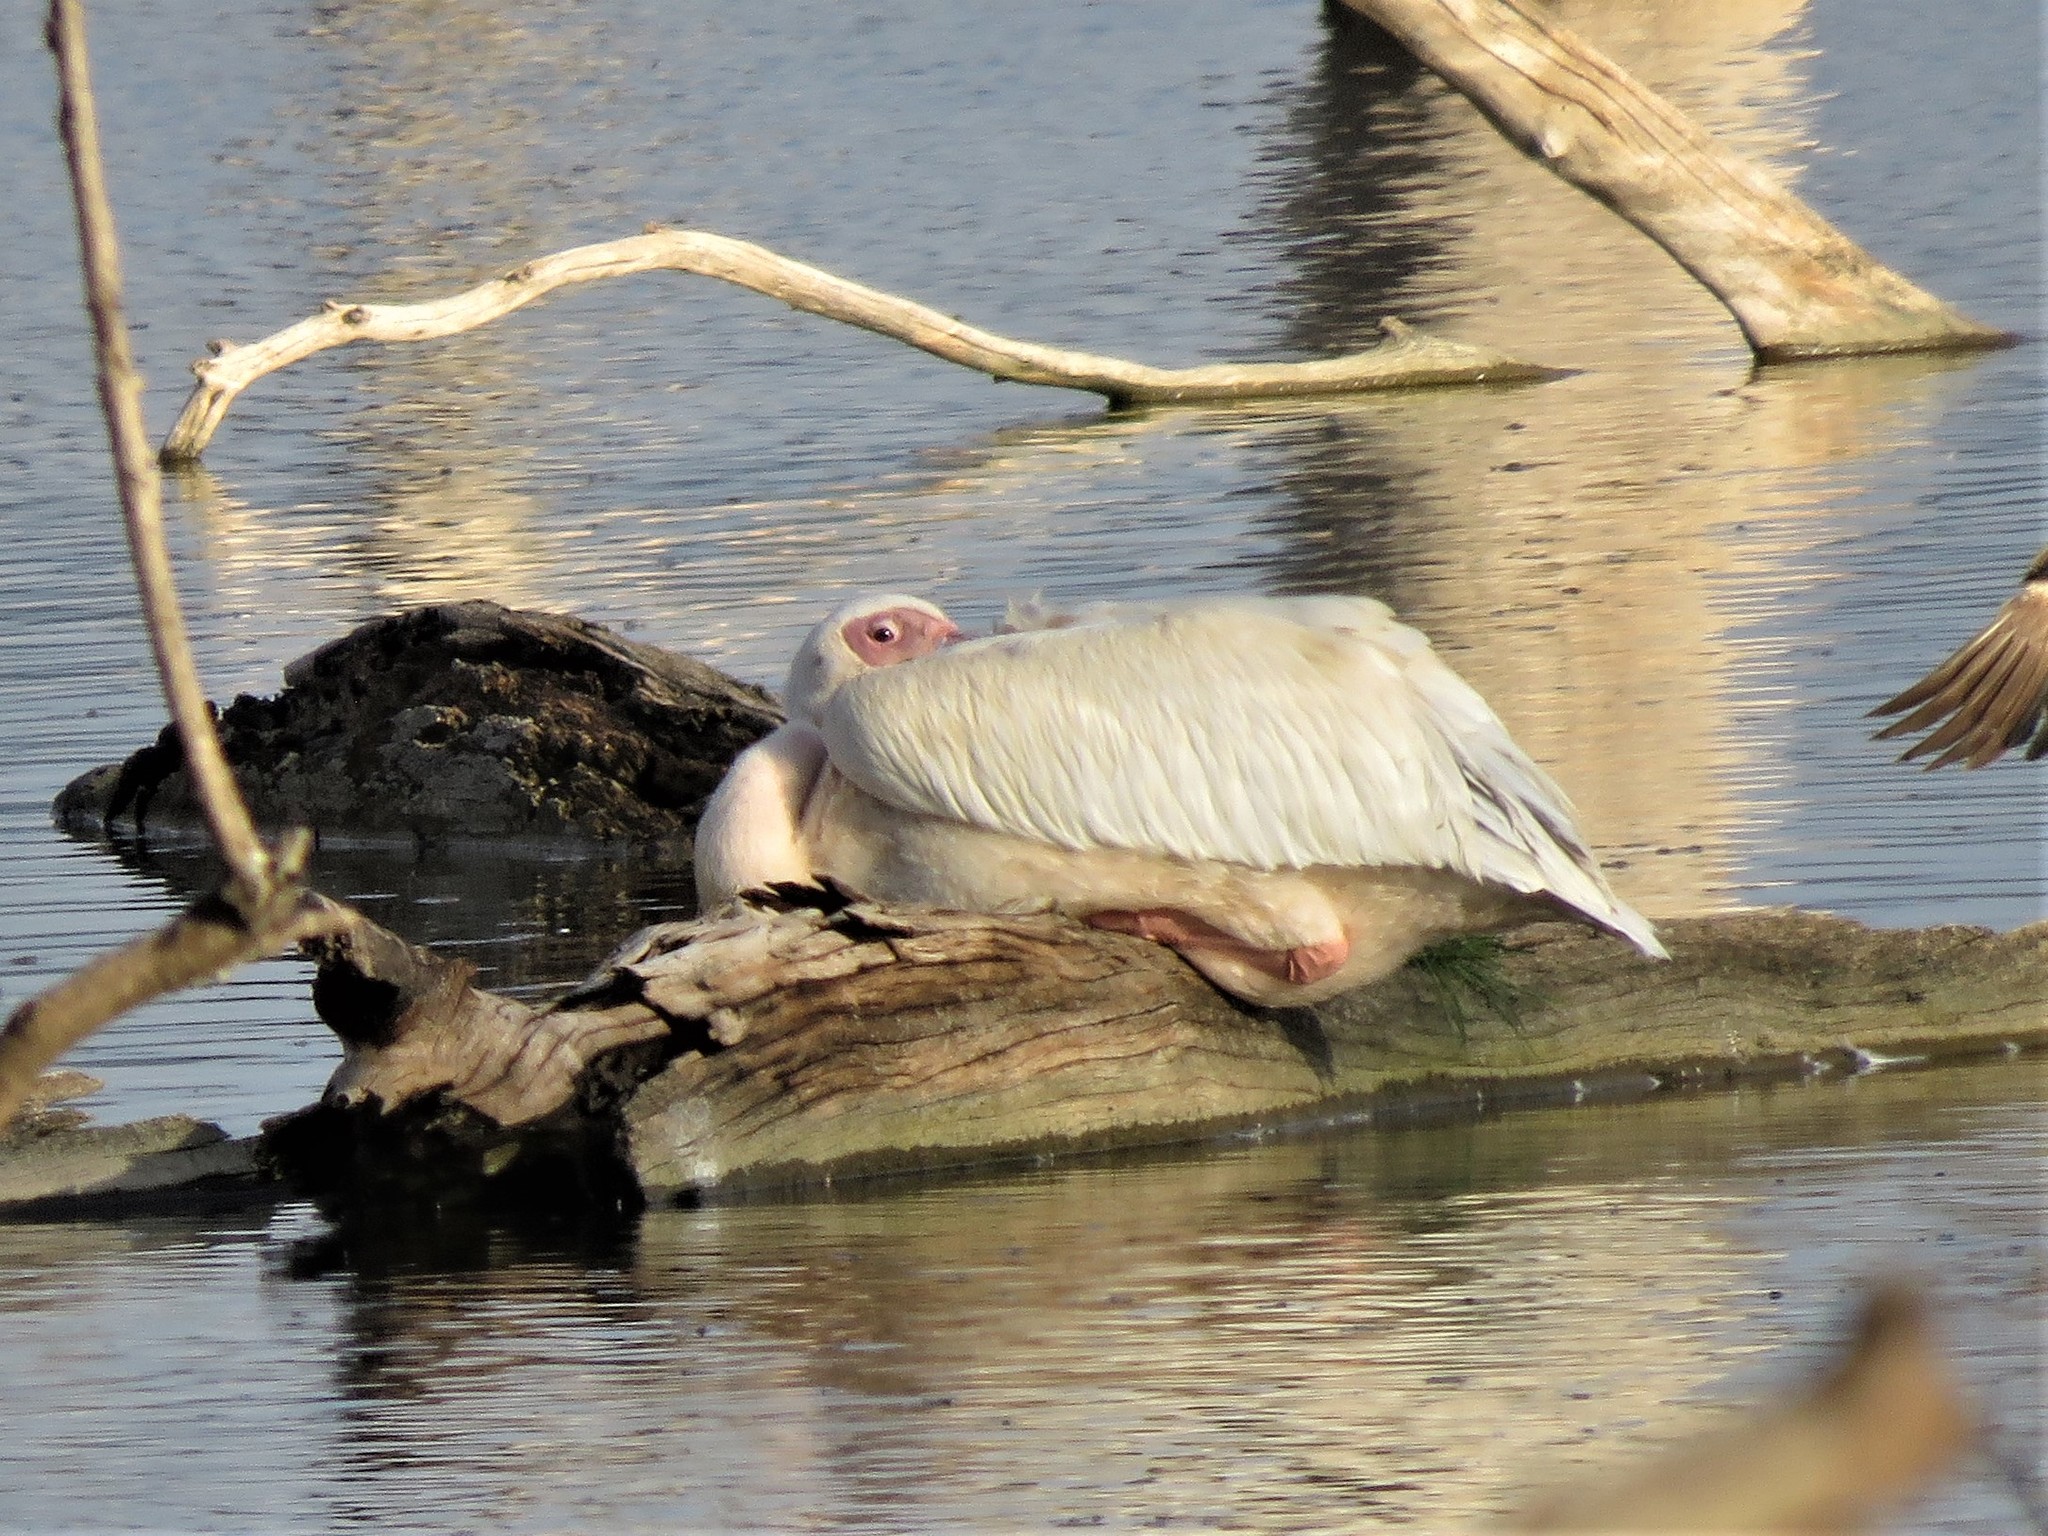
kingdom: Animalia
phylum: Chordata
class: Aves
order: Pelecaniformes
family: Pelecanidae
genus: Pelecanus
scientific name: Pelecanus onocrotalus
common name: Great white pelican
